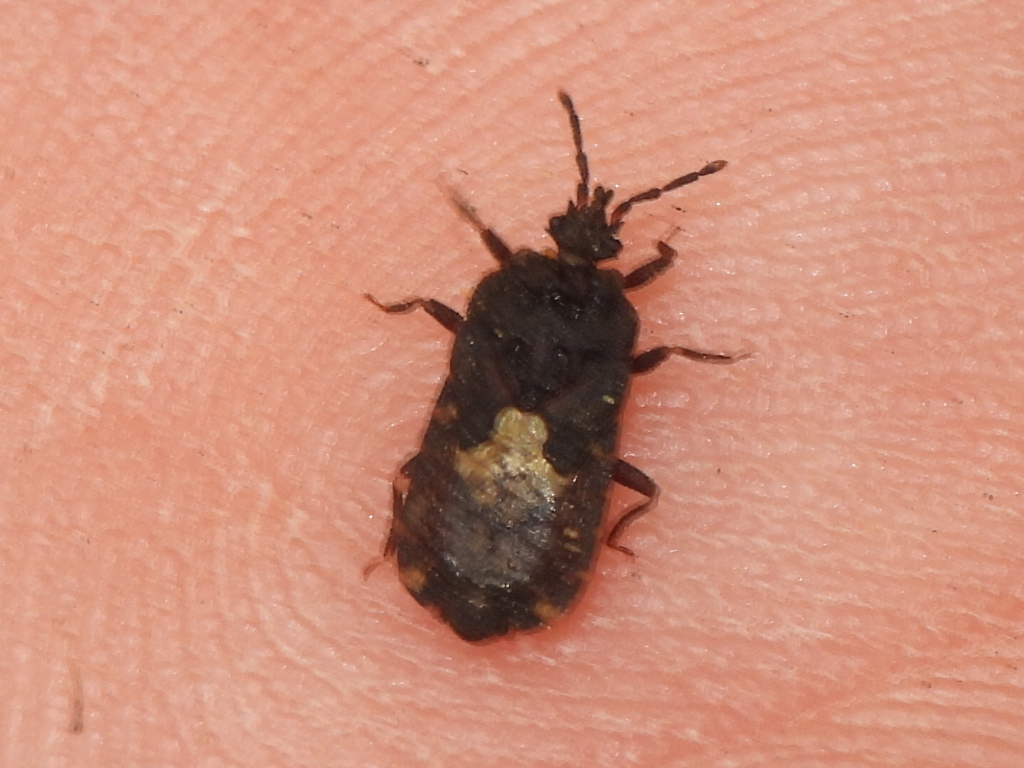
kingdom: Animalia
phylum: Arthropoda
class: Insecta
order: Hemiptera
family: Aradidae
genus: Mezira
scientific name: Mezira
